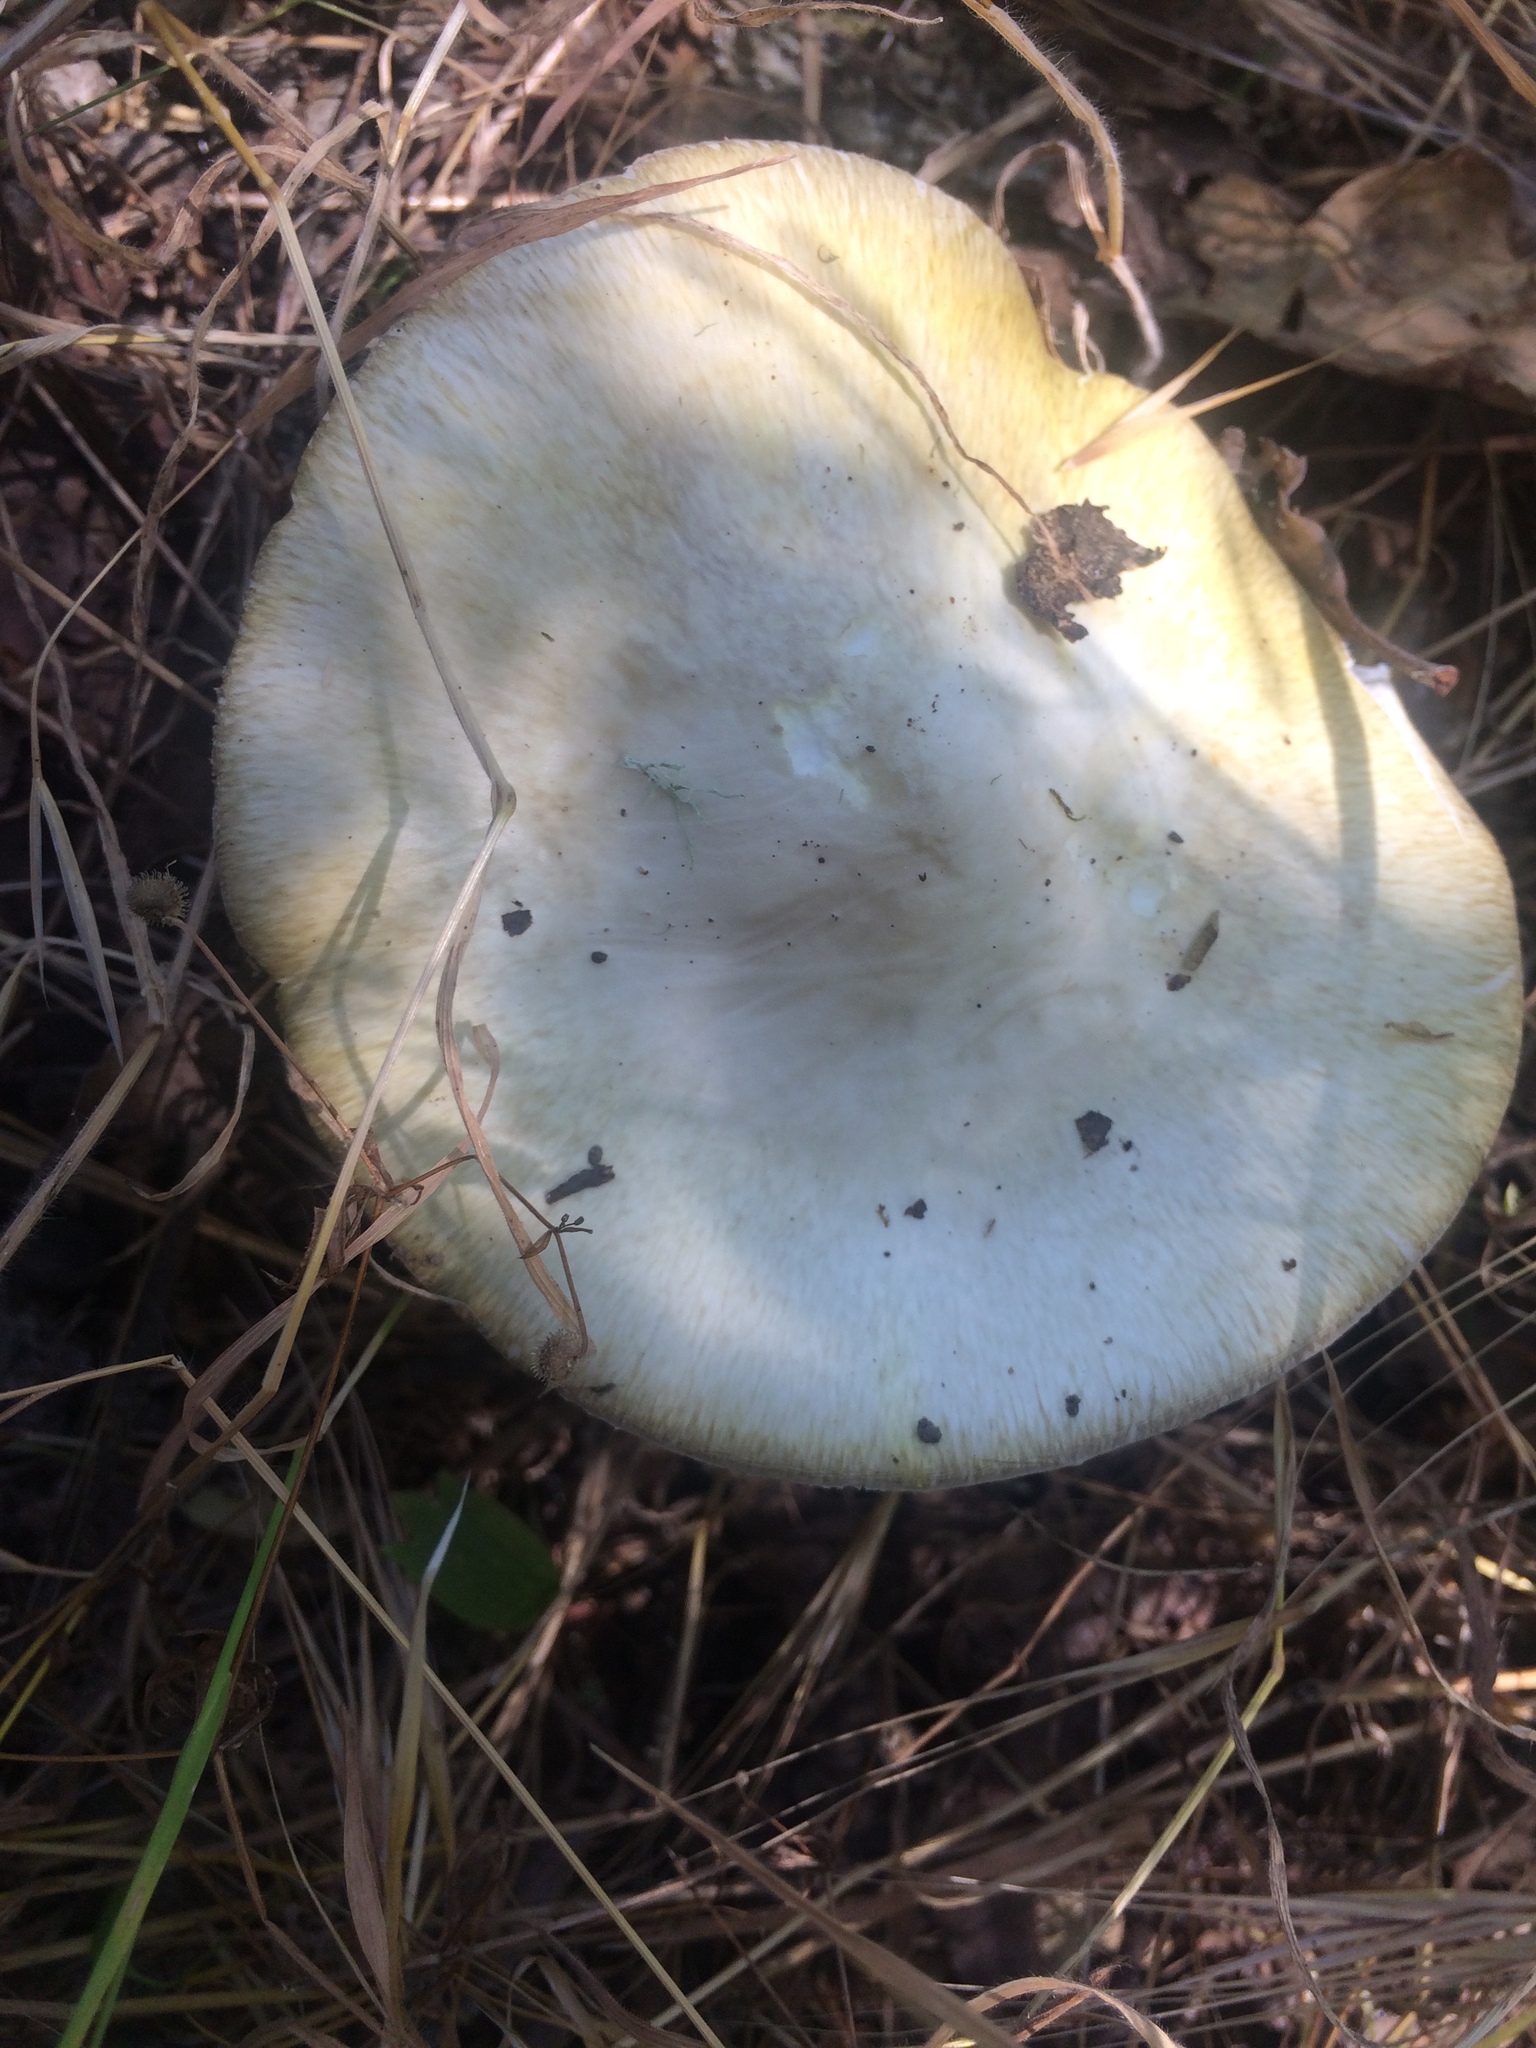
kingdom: Fungi
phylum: Basidiomycota
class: Agaricomycetes
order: Agaricales
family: Amanitaceae
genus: Amanita
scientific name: Amanita phalloides
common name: Death cap
